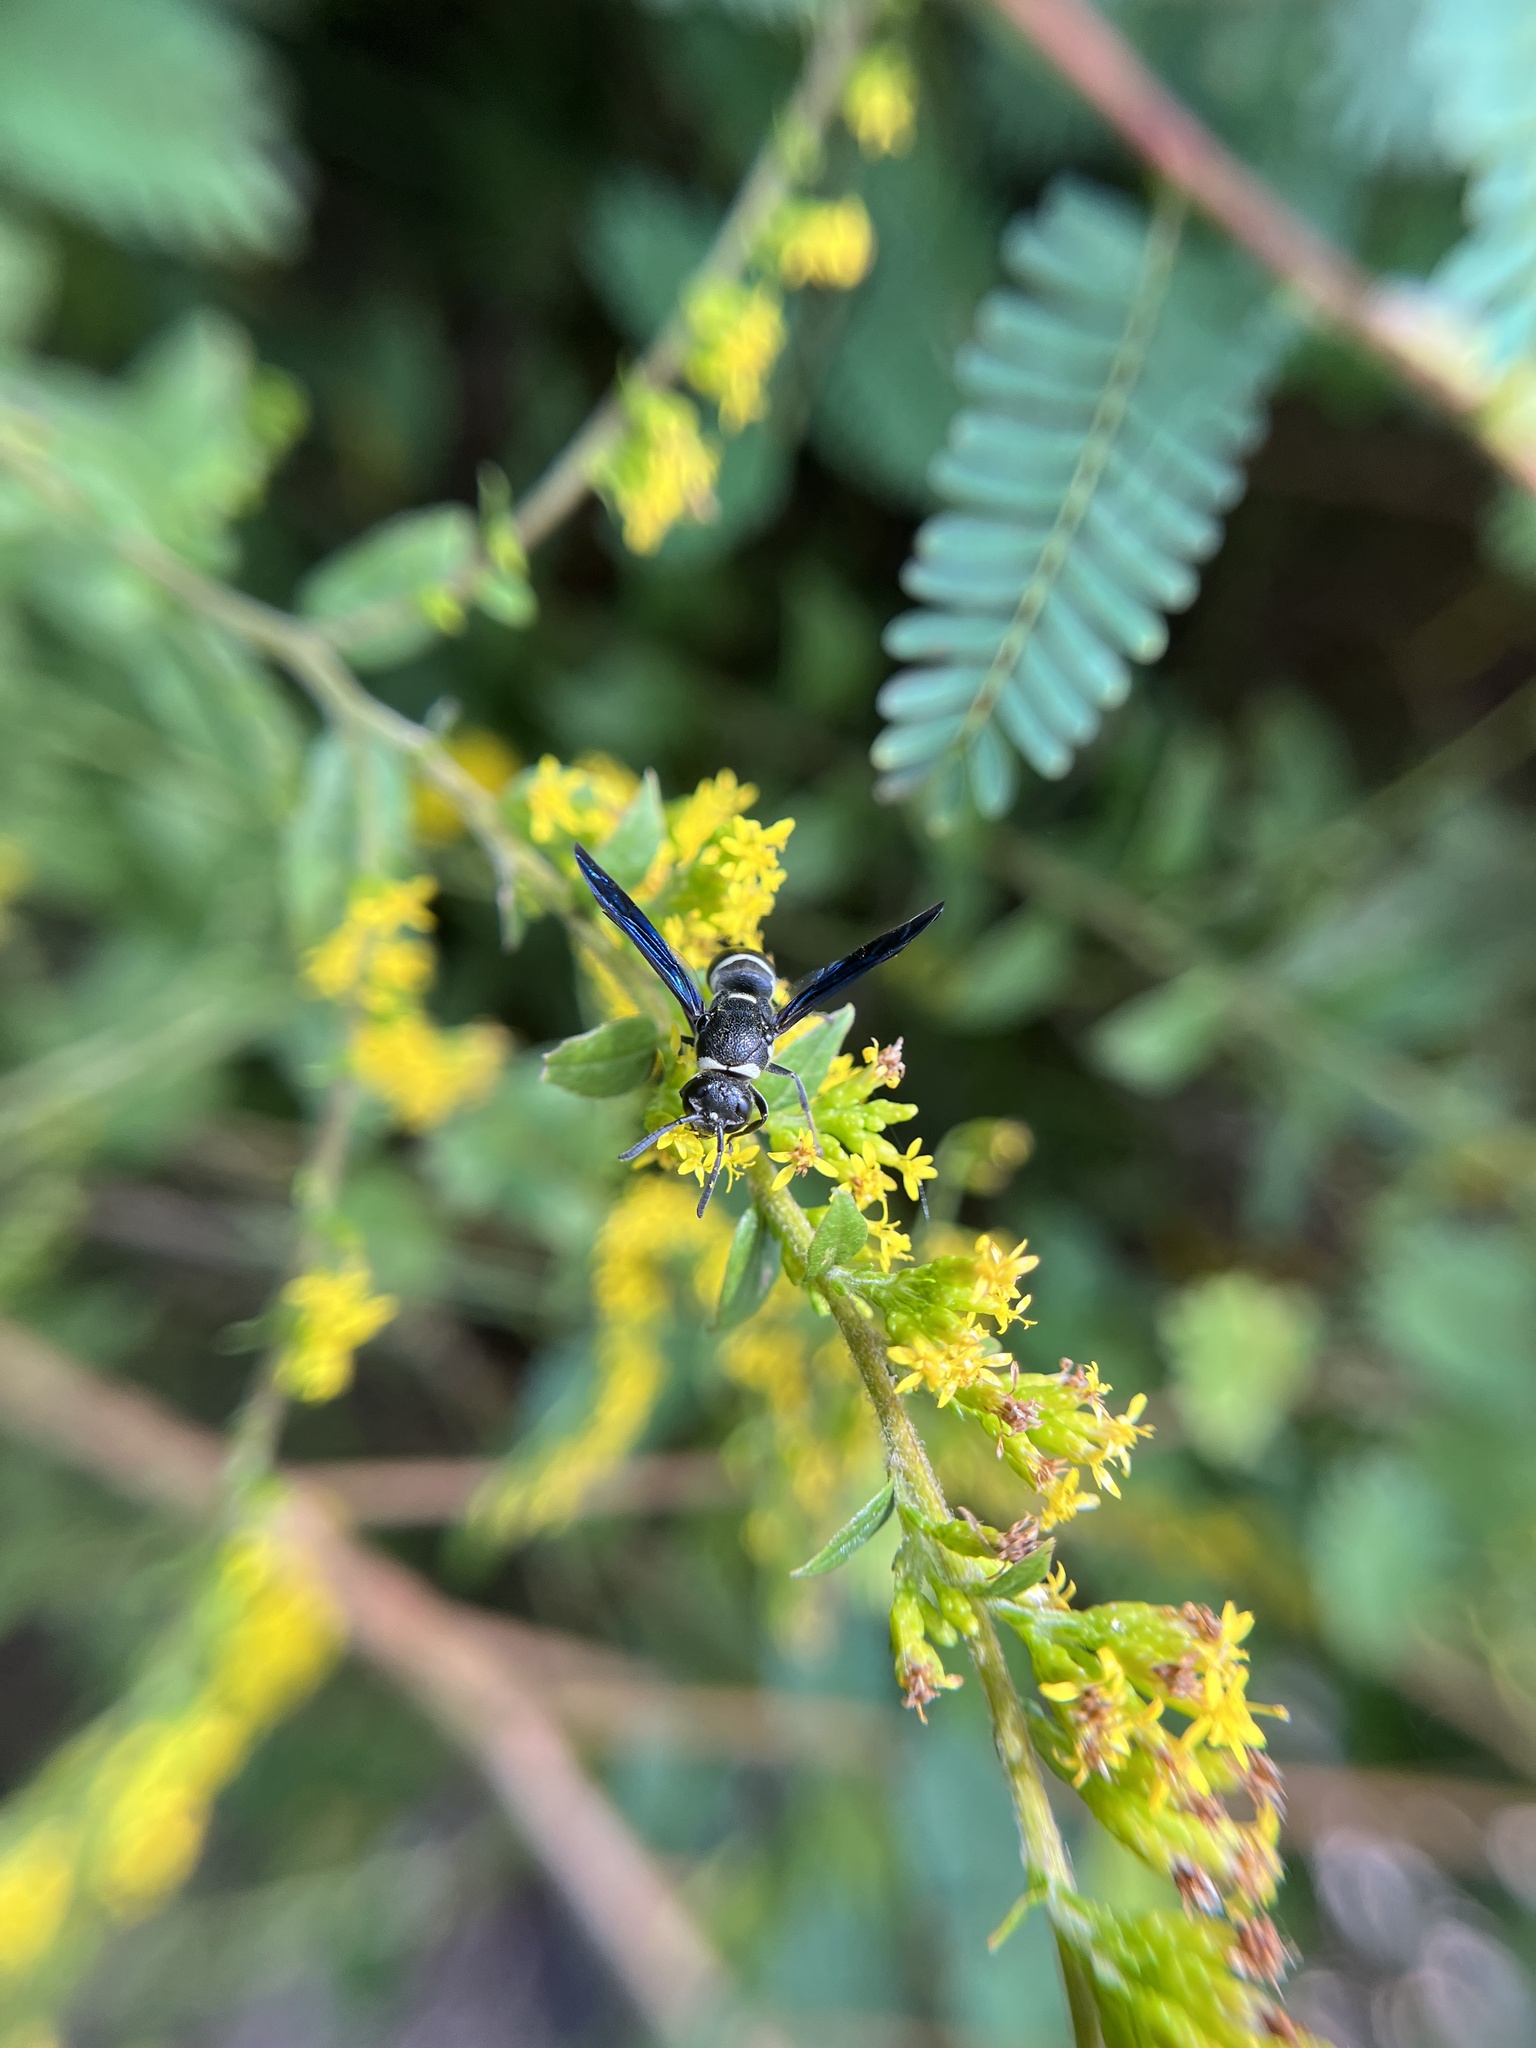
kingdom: Animalia
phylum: Arthropoda
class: Insecta
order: Hymenoptera
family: Eumenidae
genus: Euodynerus
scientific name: Euodynerus megaera
